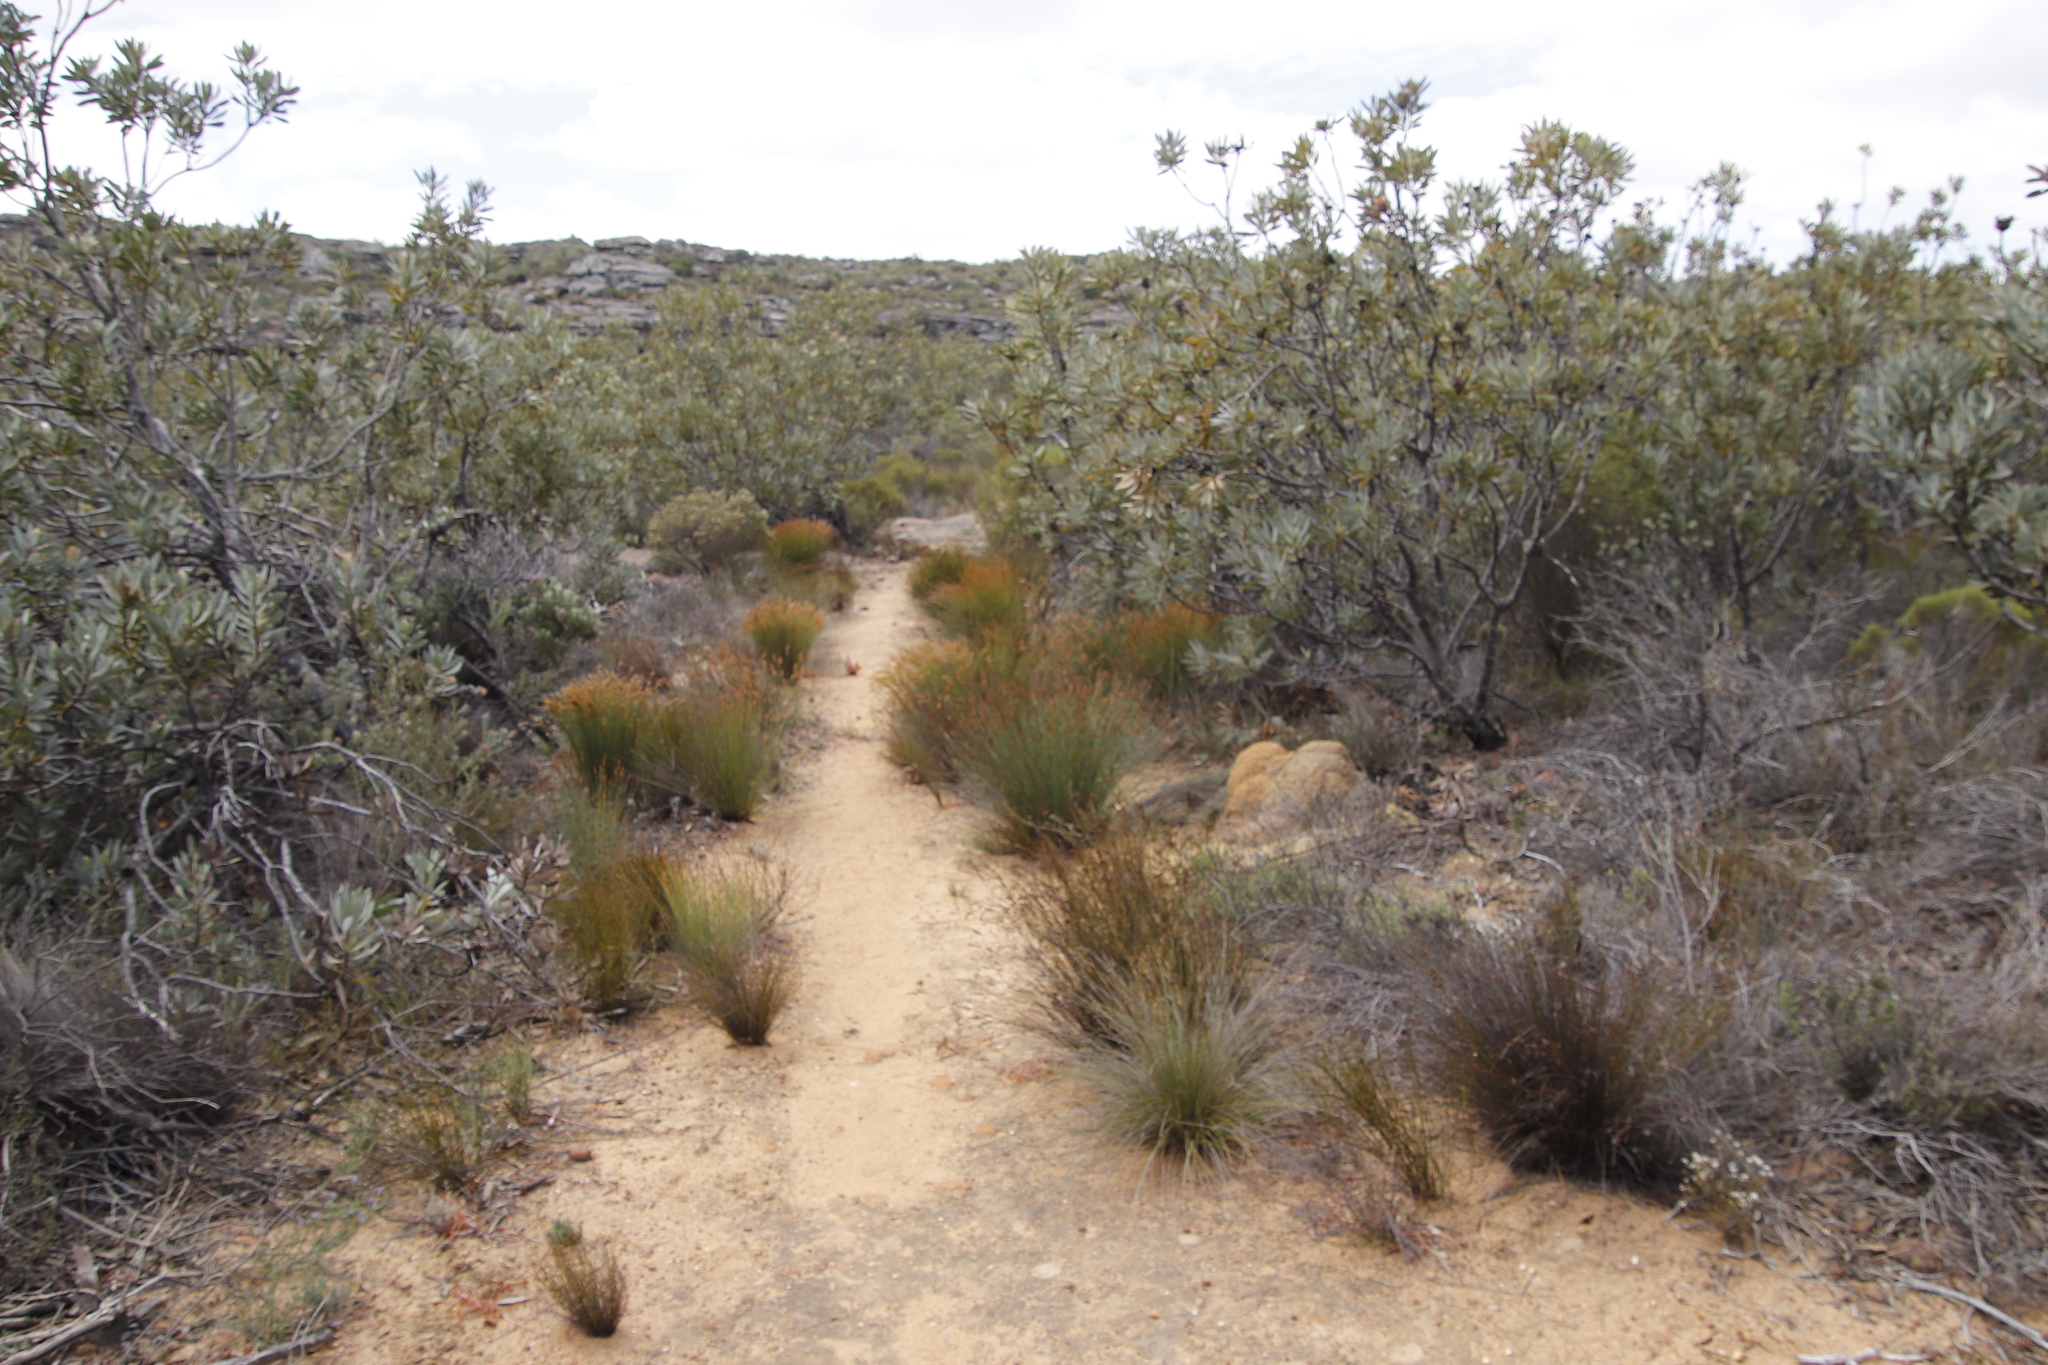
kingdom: Plantae
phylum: Tracheophyta
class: Magnoliopsida
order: Proteales
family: Proteaceae
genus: Protea
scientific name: Protea laurifolia
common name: Grey-leaf sugarbsh
